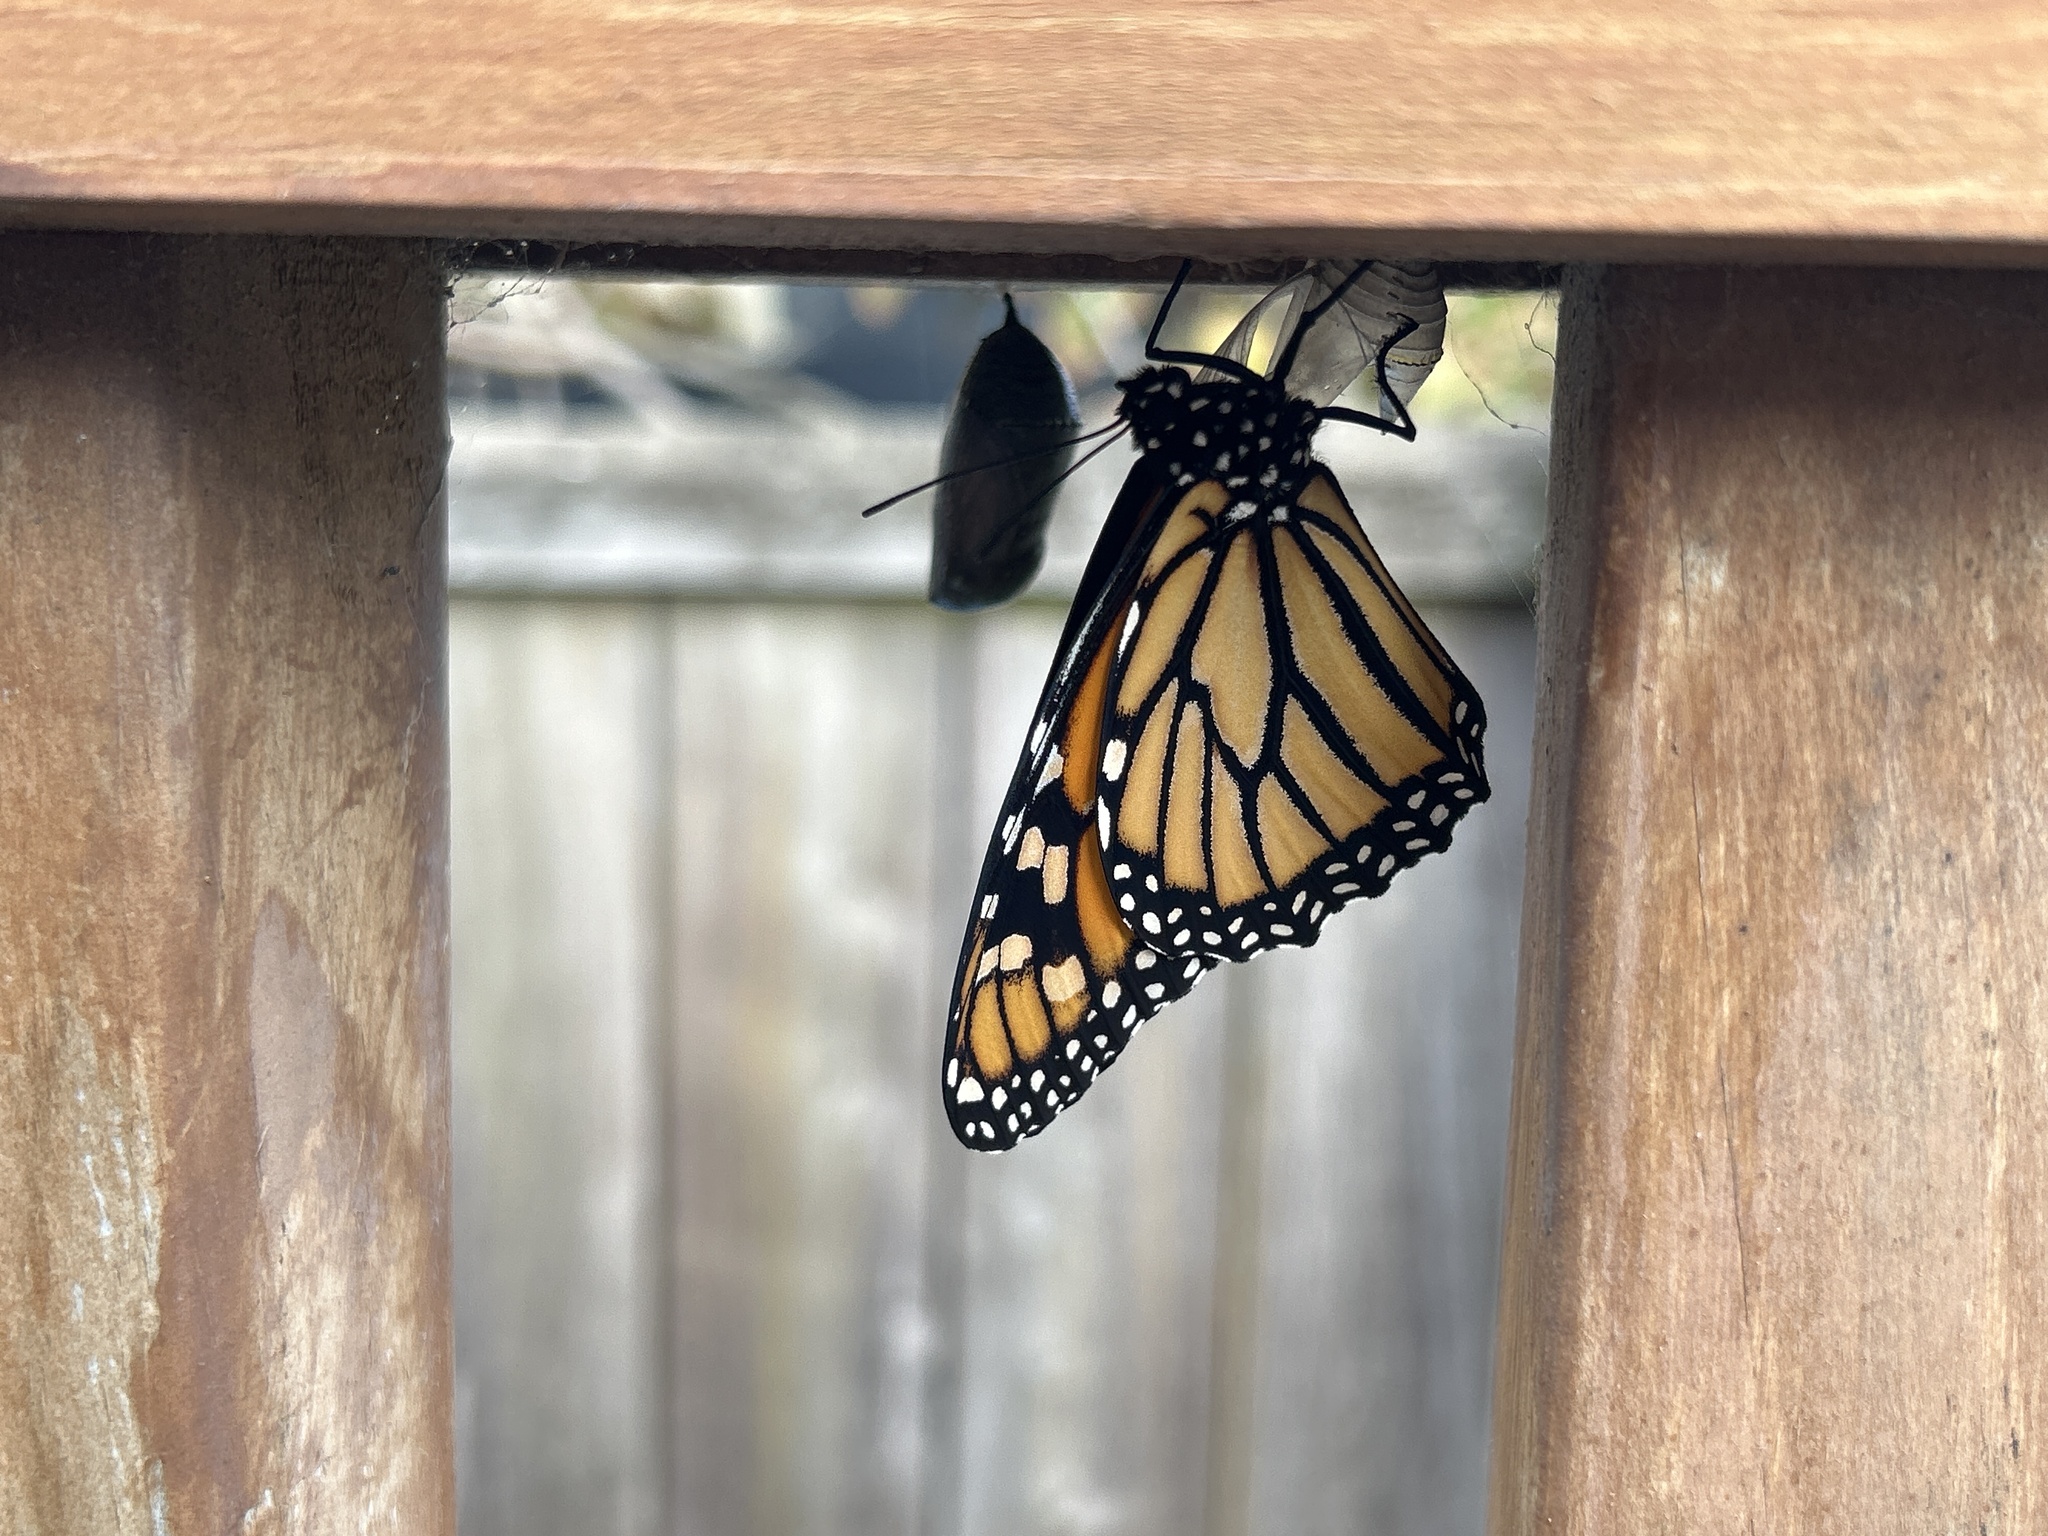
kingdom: Animalia
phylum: Arthropoda
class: Insecta
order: Lepidoptera
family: Nymphalidae
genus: Danaus
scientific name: Danaus plexippus
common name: Monarch
